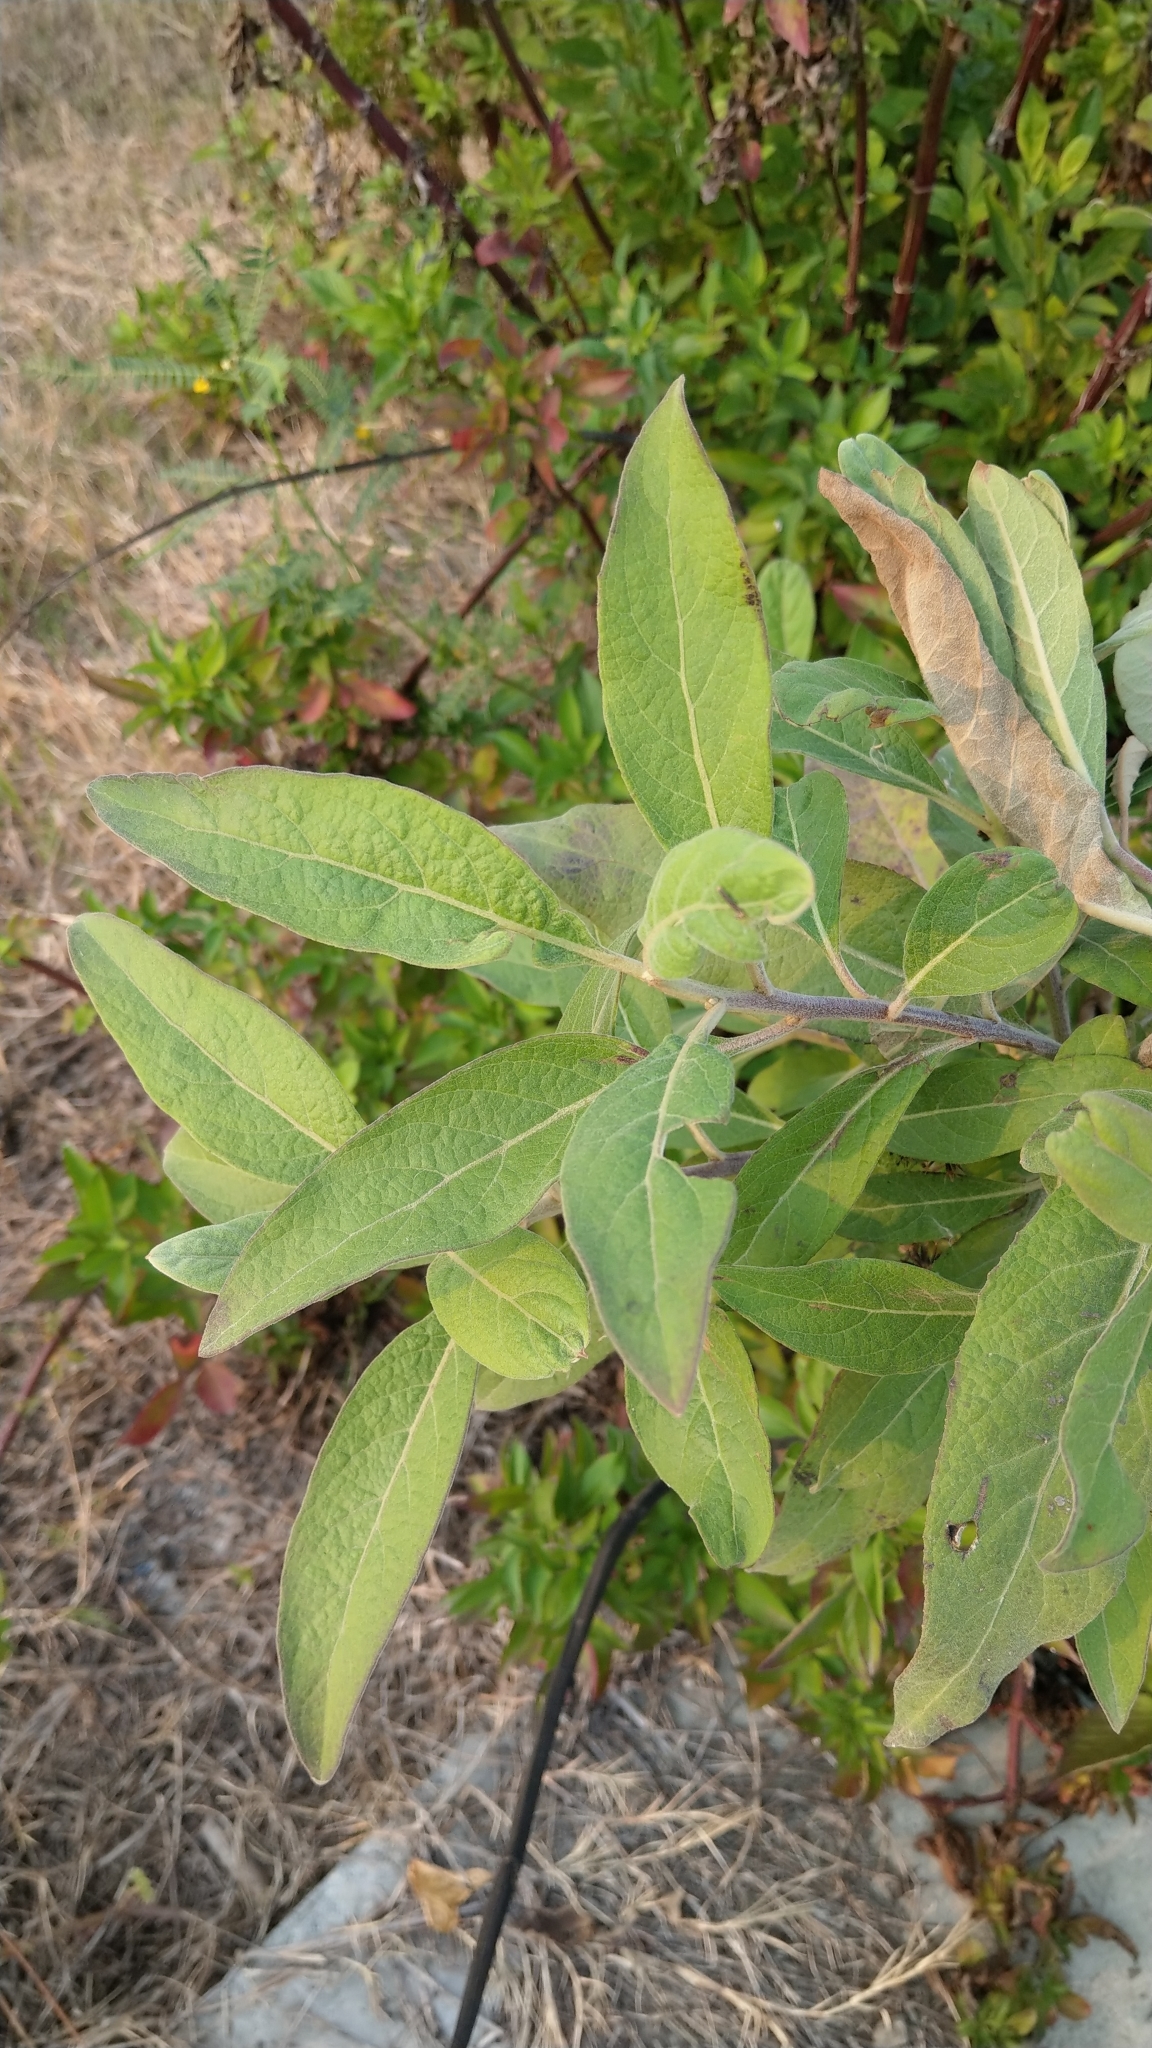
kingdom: Plantae
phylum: Tracheophyta
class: Magnoliopsida
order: Asterales
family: Asteraceae
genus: Pluchea
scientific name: Pluchea carolinensis
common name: Marsh fleabane
